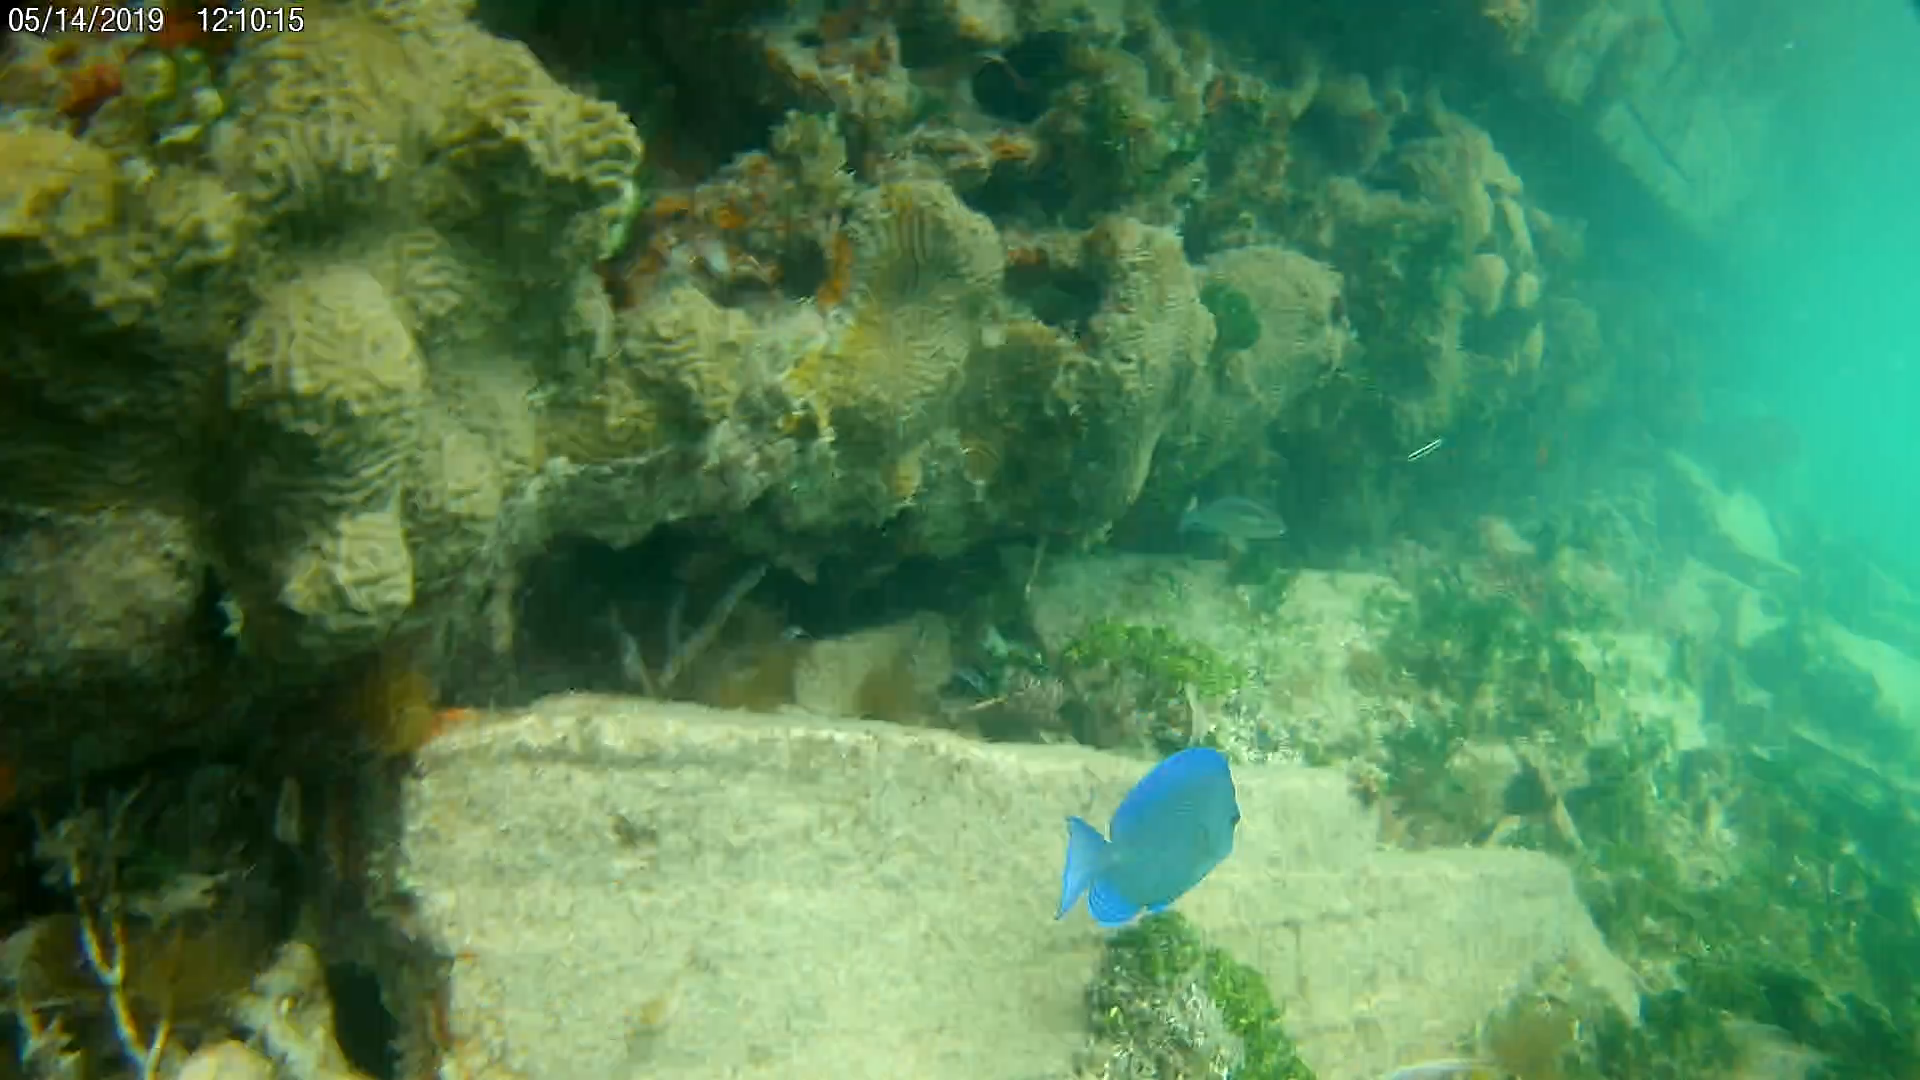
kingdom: Animalia
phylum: Chordata
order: Perciformes
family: Acanthuridae
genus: Acanthurus
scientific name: Acanthurus coeruleus
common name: Blue tang
